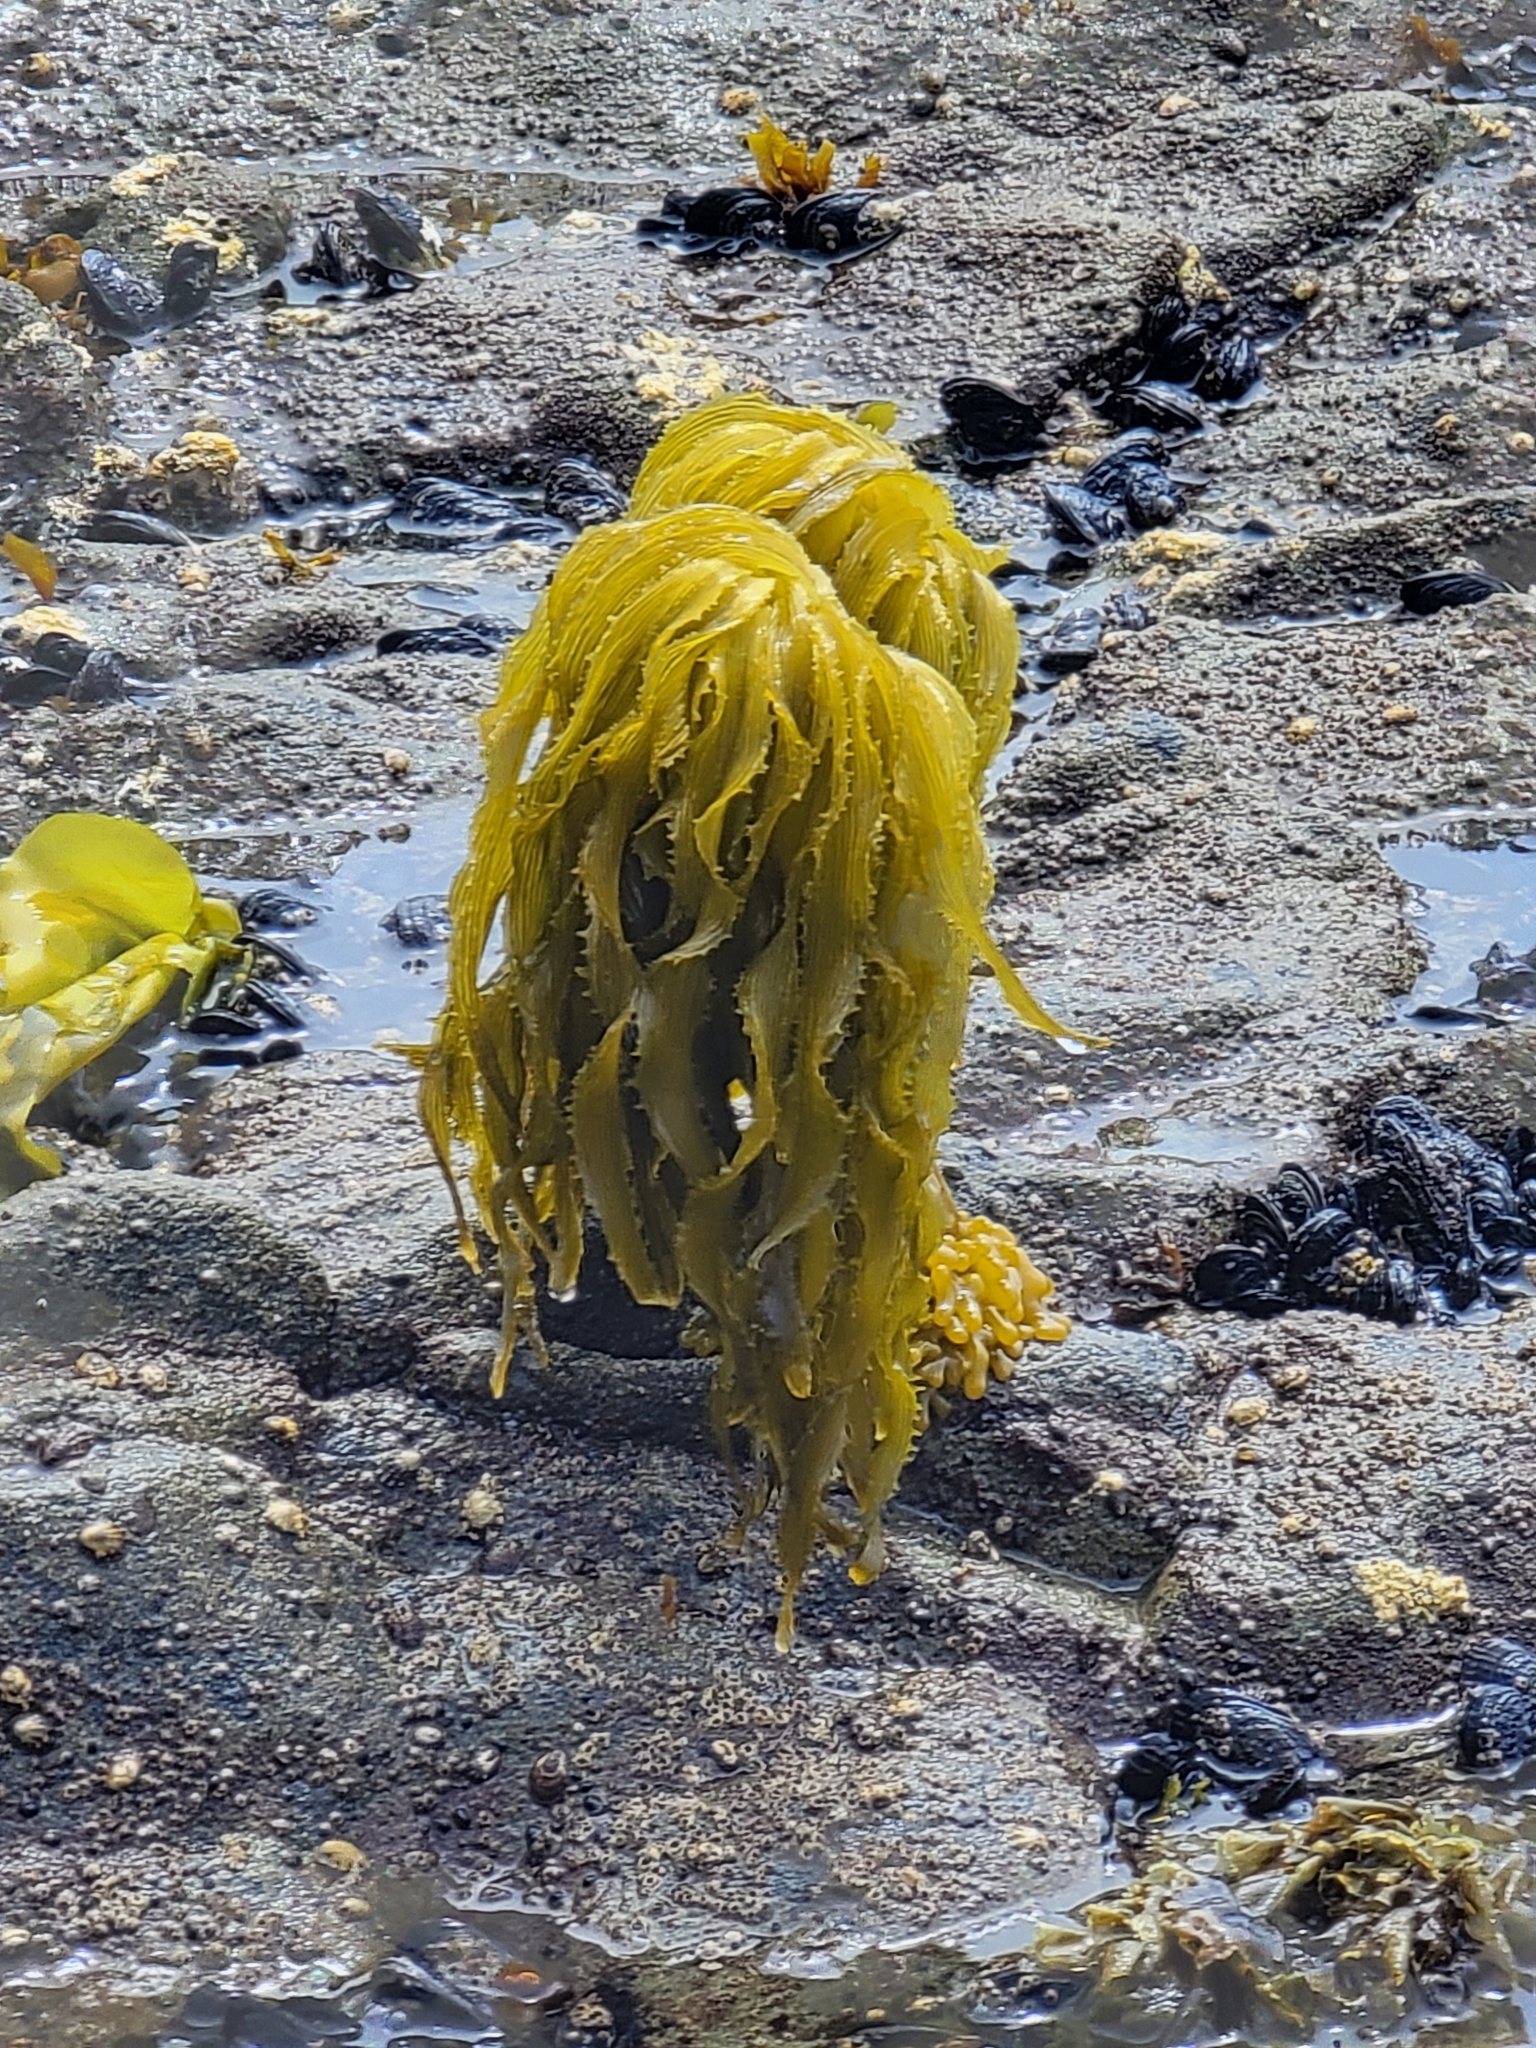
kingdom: Chromista
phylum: Ochrophyta
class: Phaeophyceae
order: Laminariales
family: Laminariaceae
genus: Postelsia
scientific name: Postelsia palmiformis
